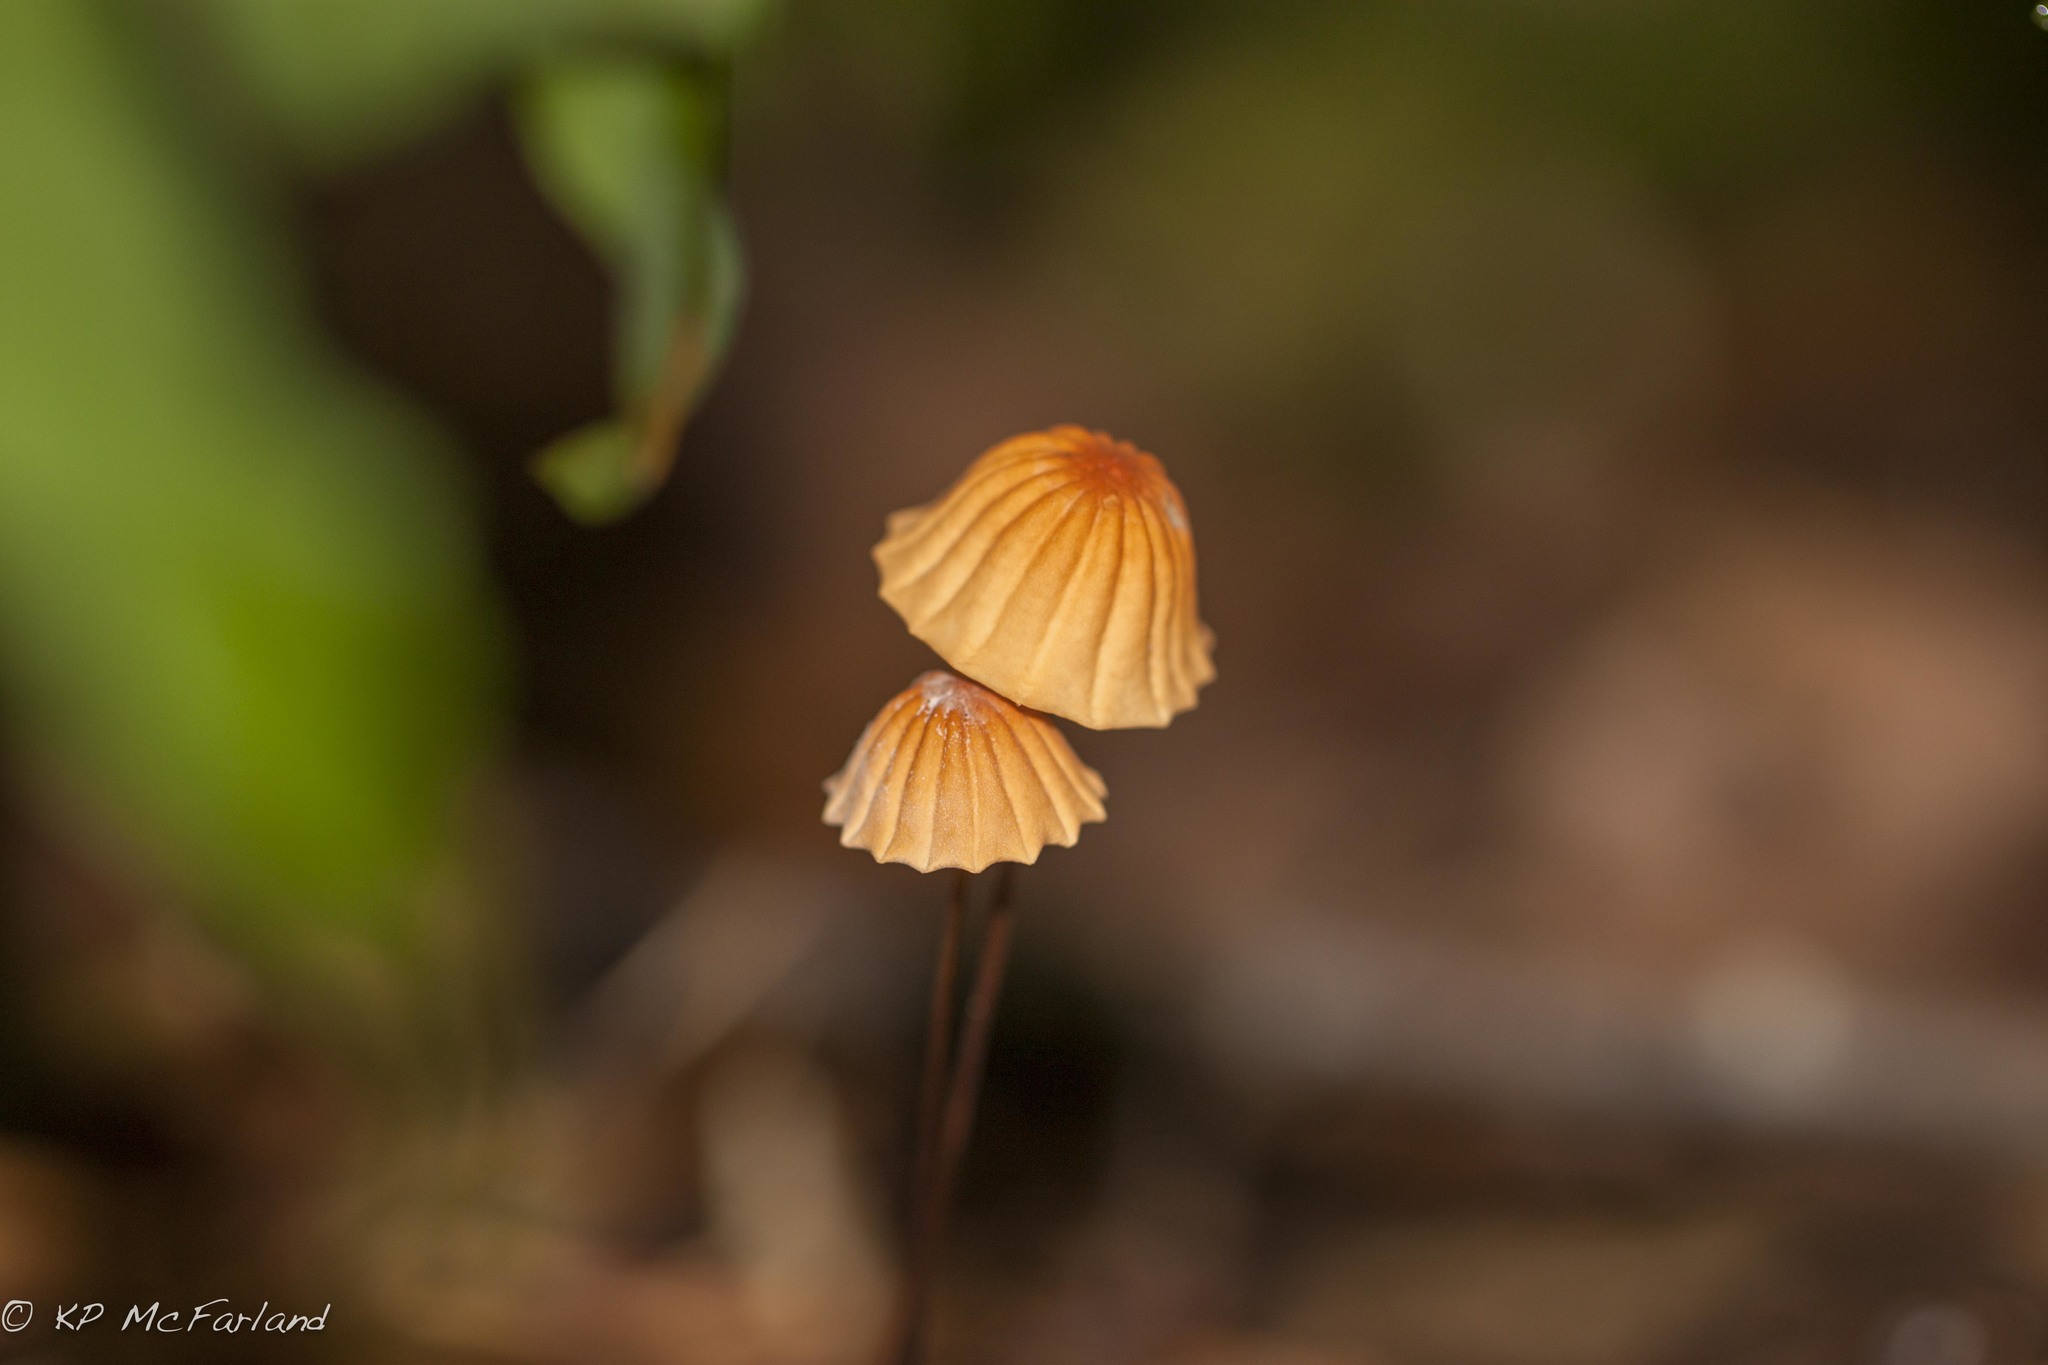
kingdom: Fungi
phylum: Basidiomycota
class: Agaricomycetes
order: Agaricales
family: Marasmiaceae
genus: Marasmius
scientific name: Marasmius siccus
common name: Orange pinwheel
